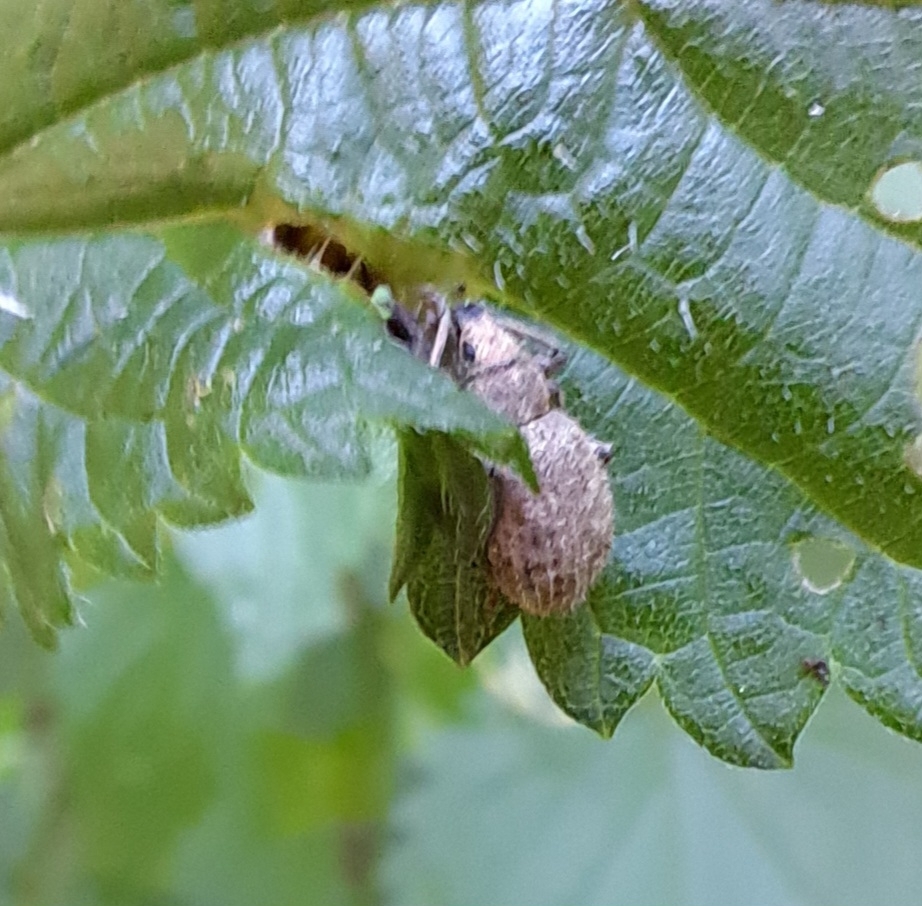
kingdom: Animalia
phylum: Arthropoda
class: Insecta
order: Coleoptera
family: Curculionidae
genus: Sciaphilus
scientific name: Sciaphilus asperatus
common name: Weevil
